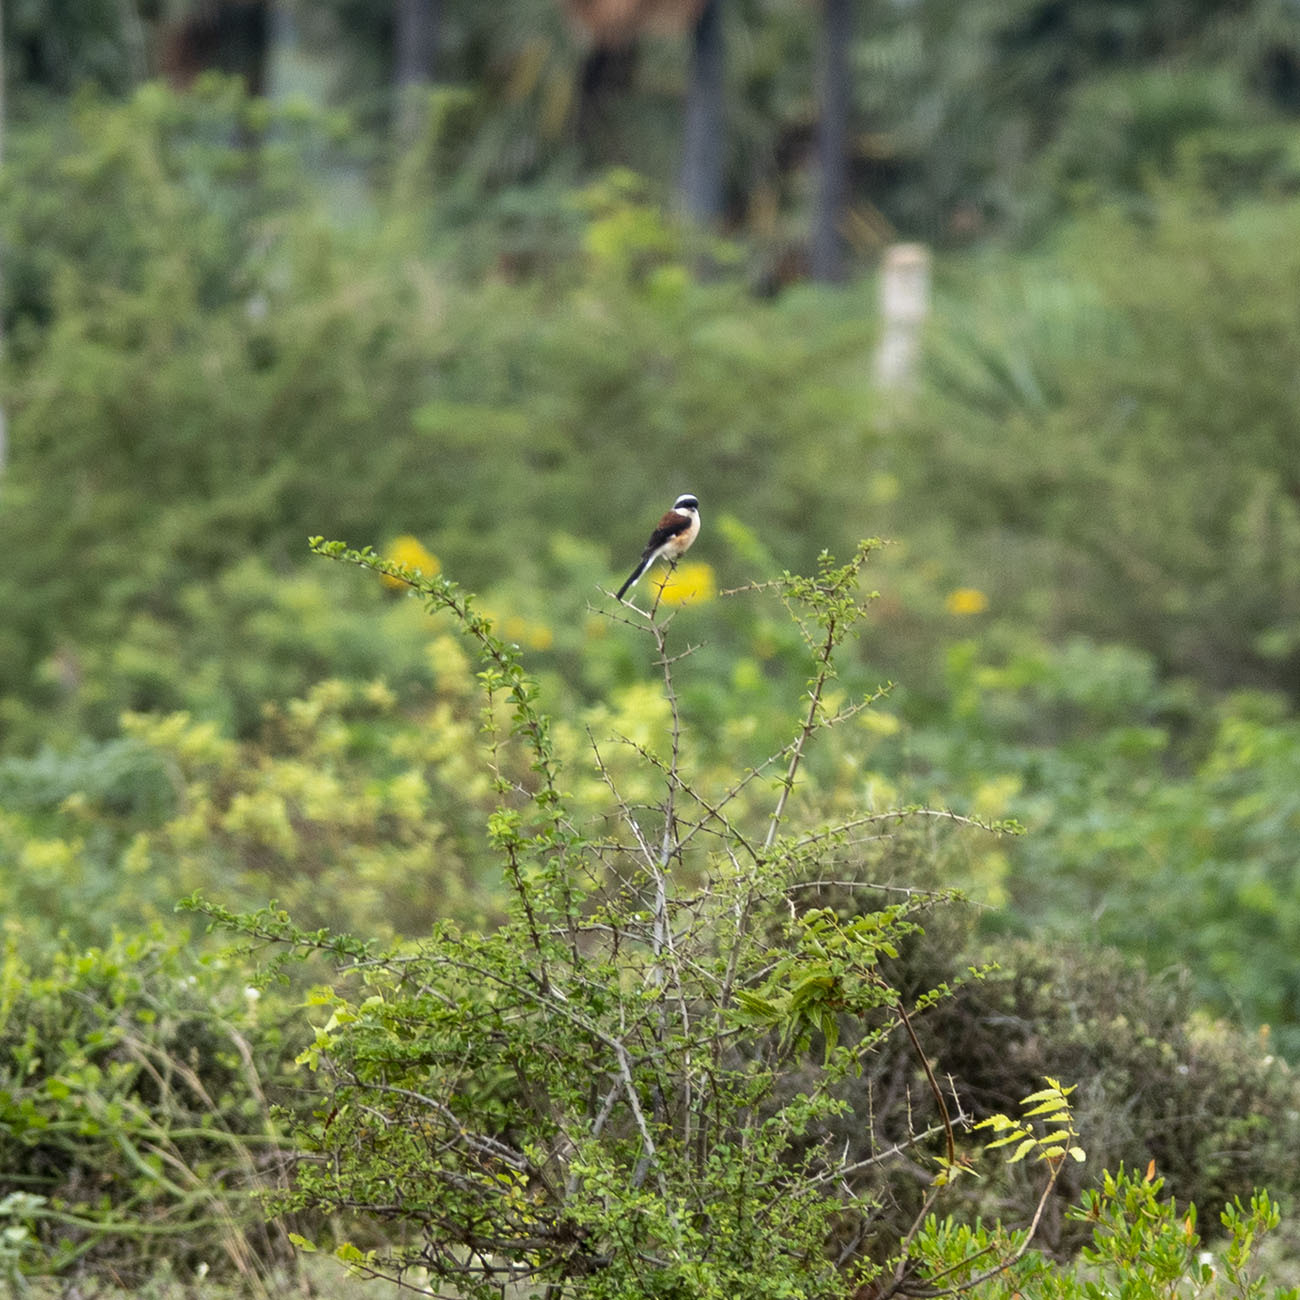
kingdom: Animalia
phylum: Chordata
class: Aves
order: Passeriformes
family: Laniidae
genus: Lanius
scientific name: Lanius vittatus
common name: Bay-backed shrike
